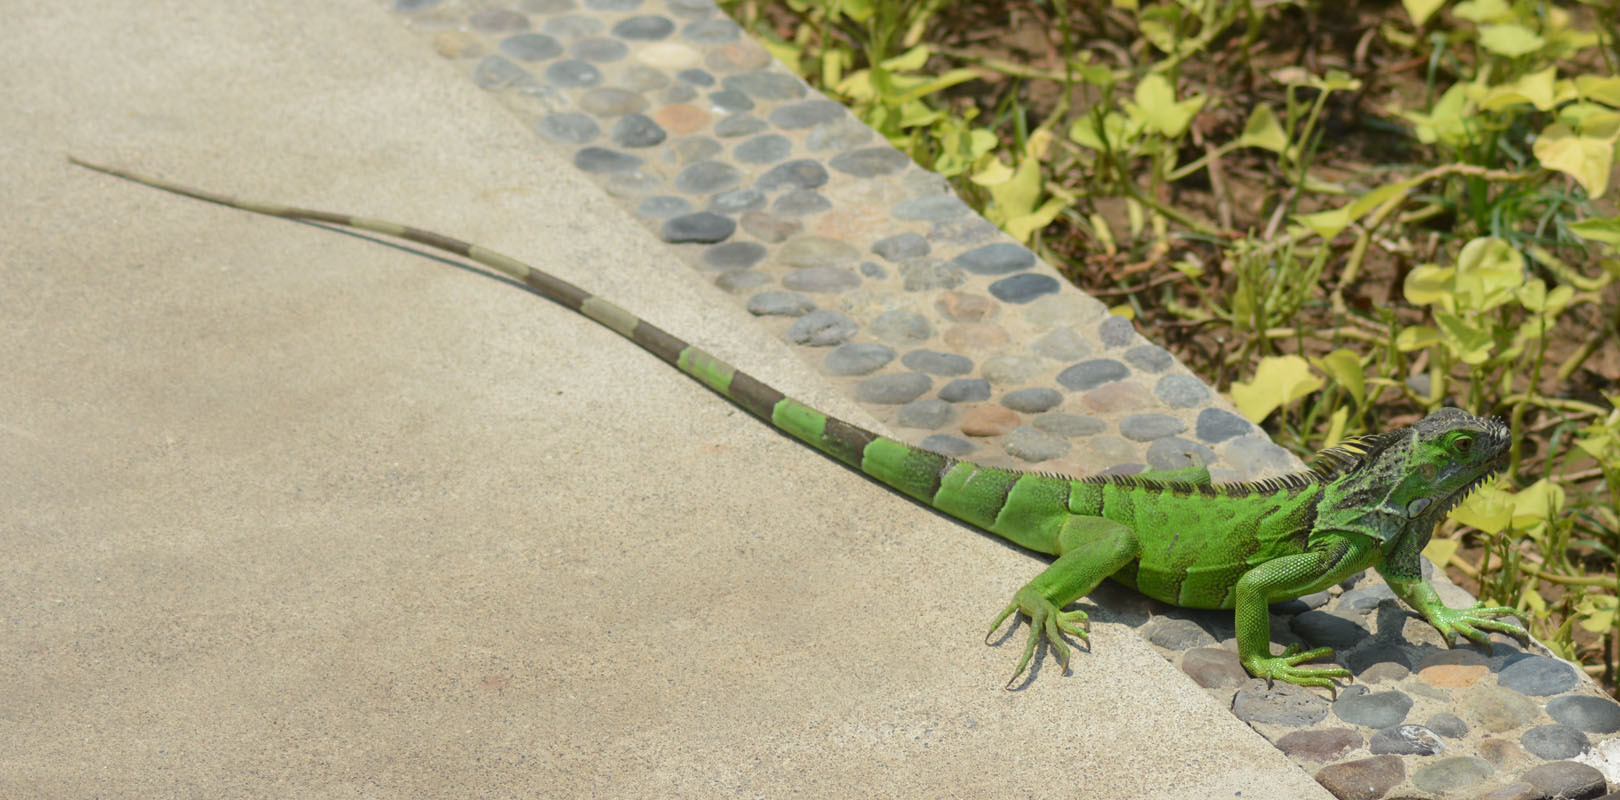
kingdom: Animalia
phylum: Chordata
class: Squamata
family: Iguanidae
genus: Iguana
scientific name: Iguana iguana
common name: Green iguana
